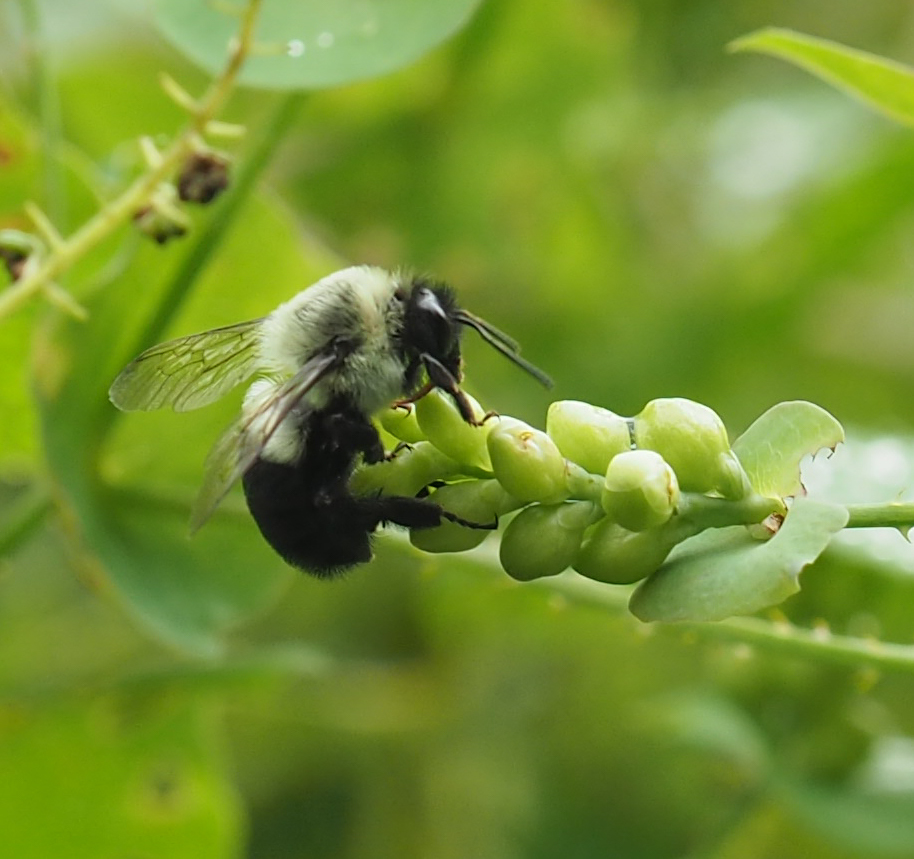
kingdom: Animalia
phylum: Arthropoda
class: Insecta
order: Hymenoptera
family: Apidae
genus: Bombus
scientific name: Bombus impatiens
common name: Common eastern bumble bee
